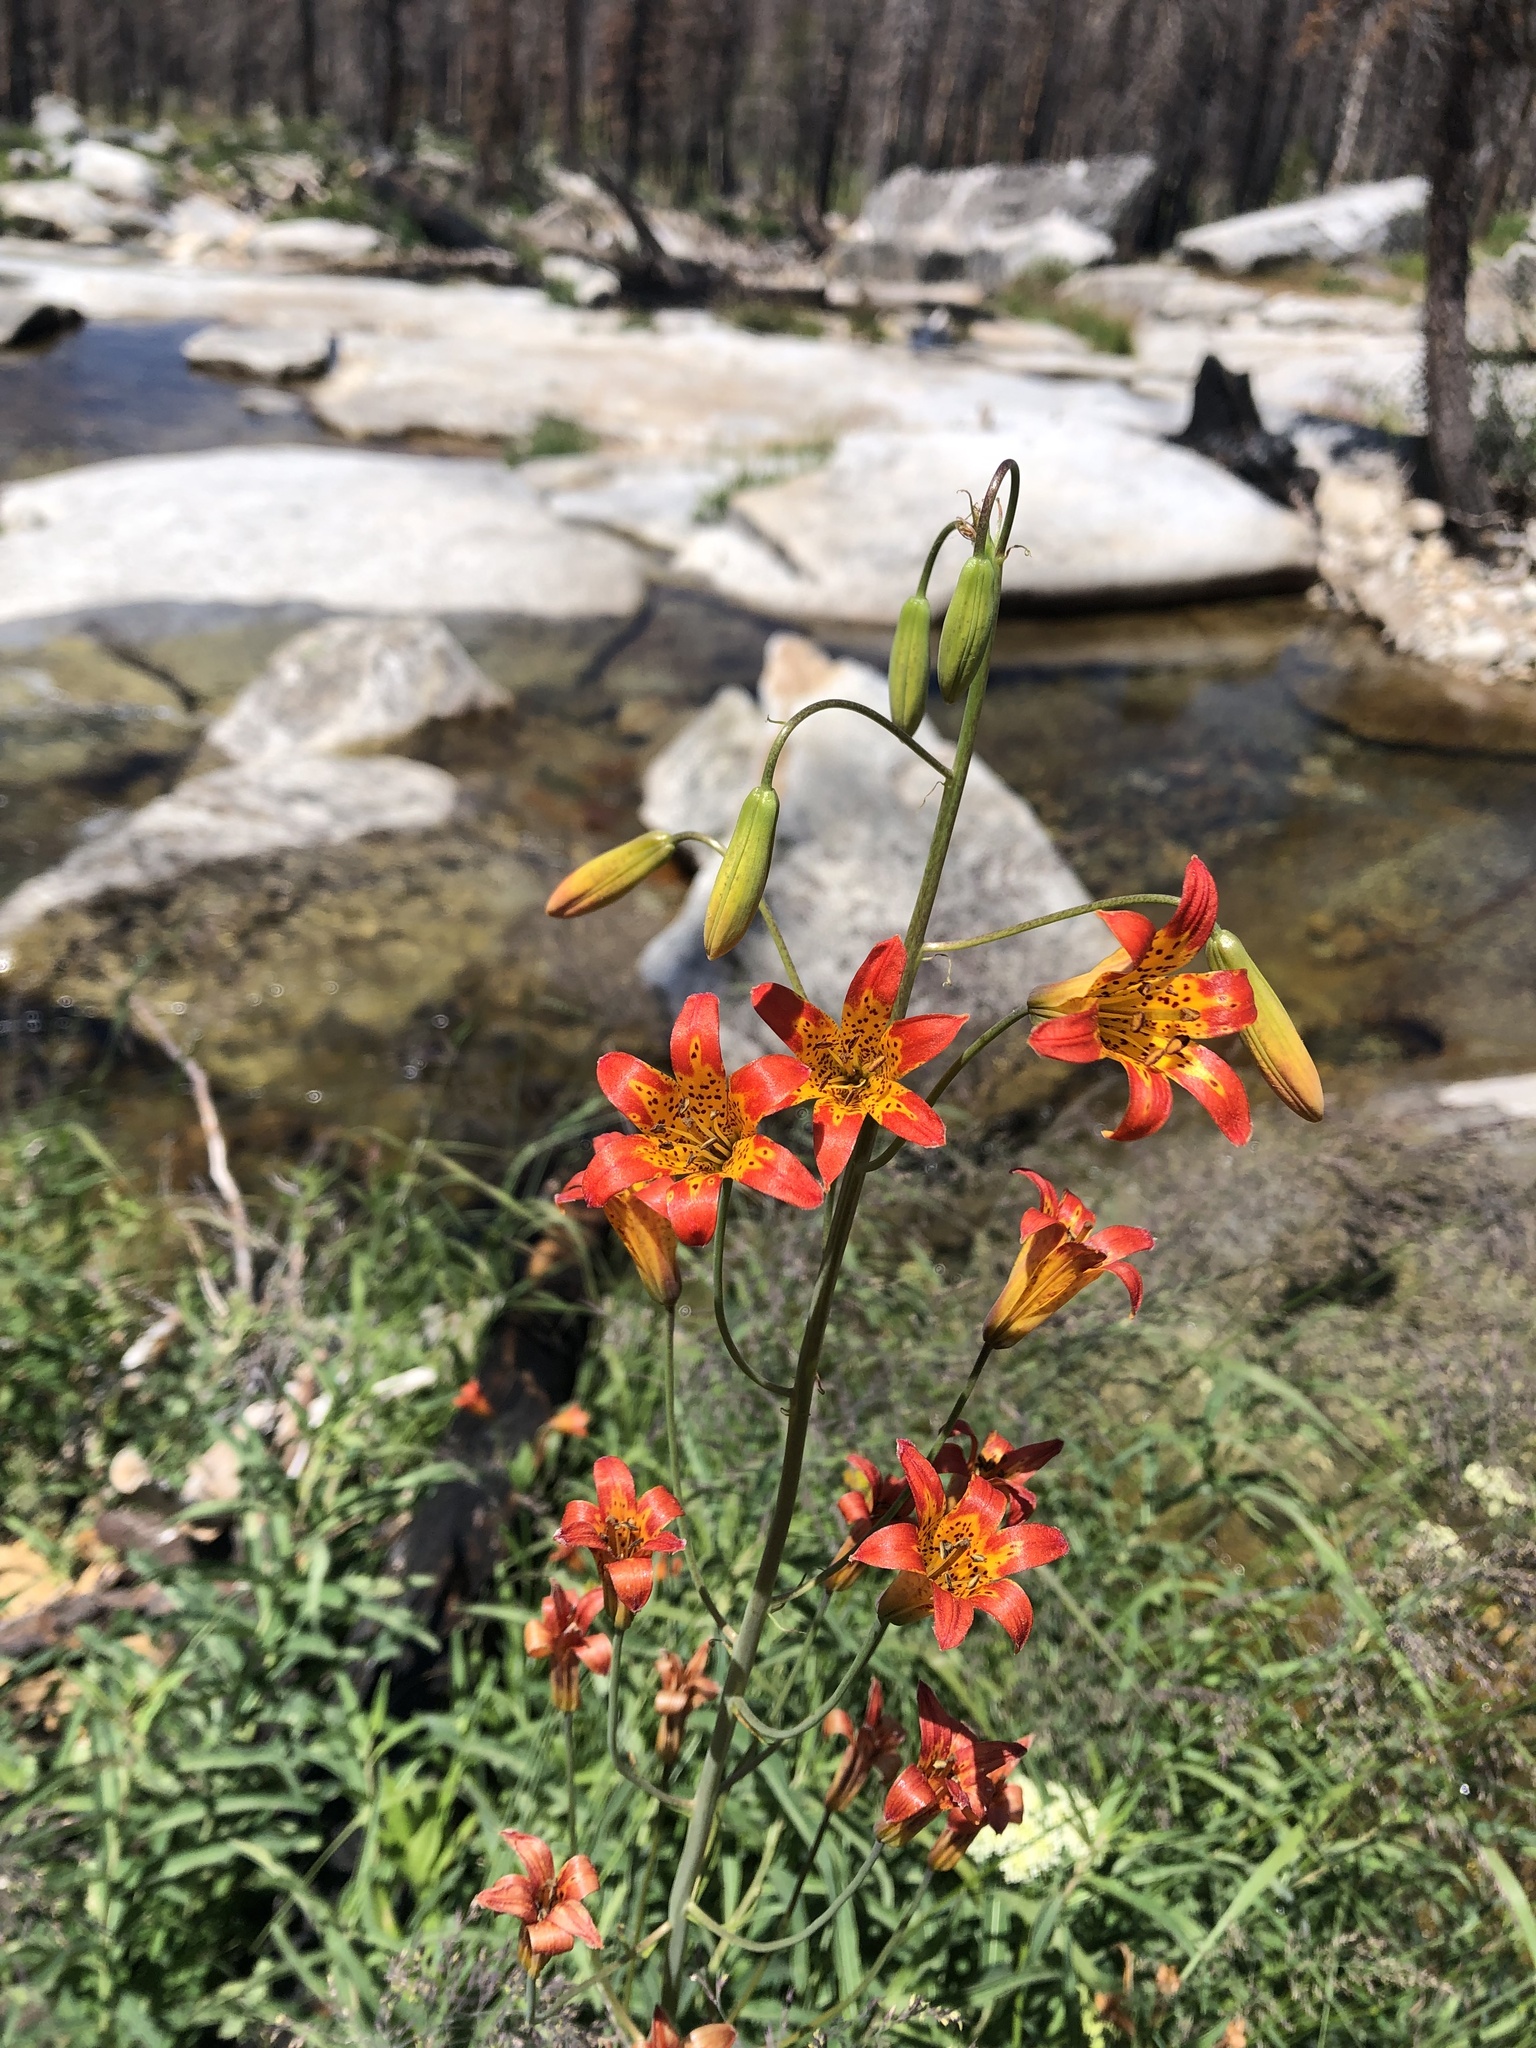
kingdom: Plantae
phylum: Tracheophyta
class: Liliopsida
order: Liliales
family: Liliaceae
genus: Lilium
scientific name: Lilium parvum
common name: Alpine lily
